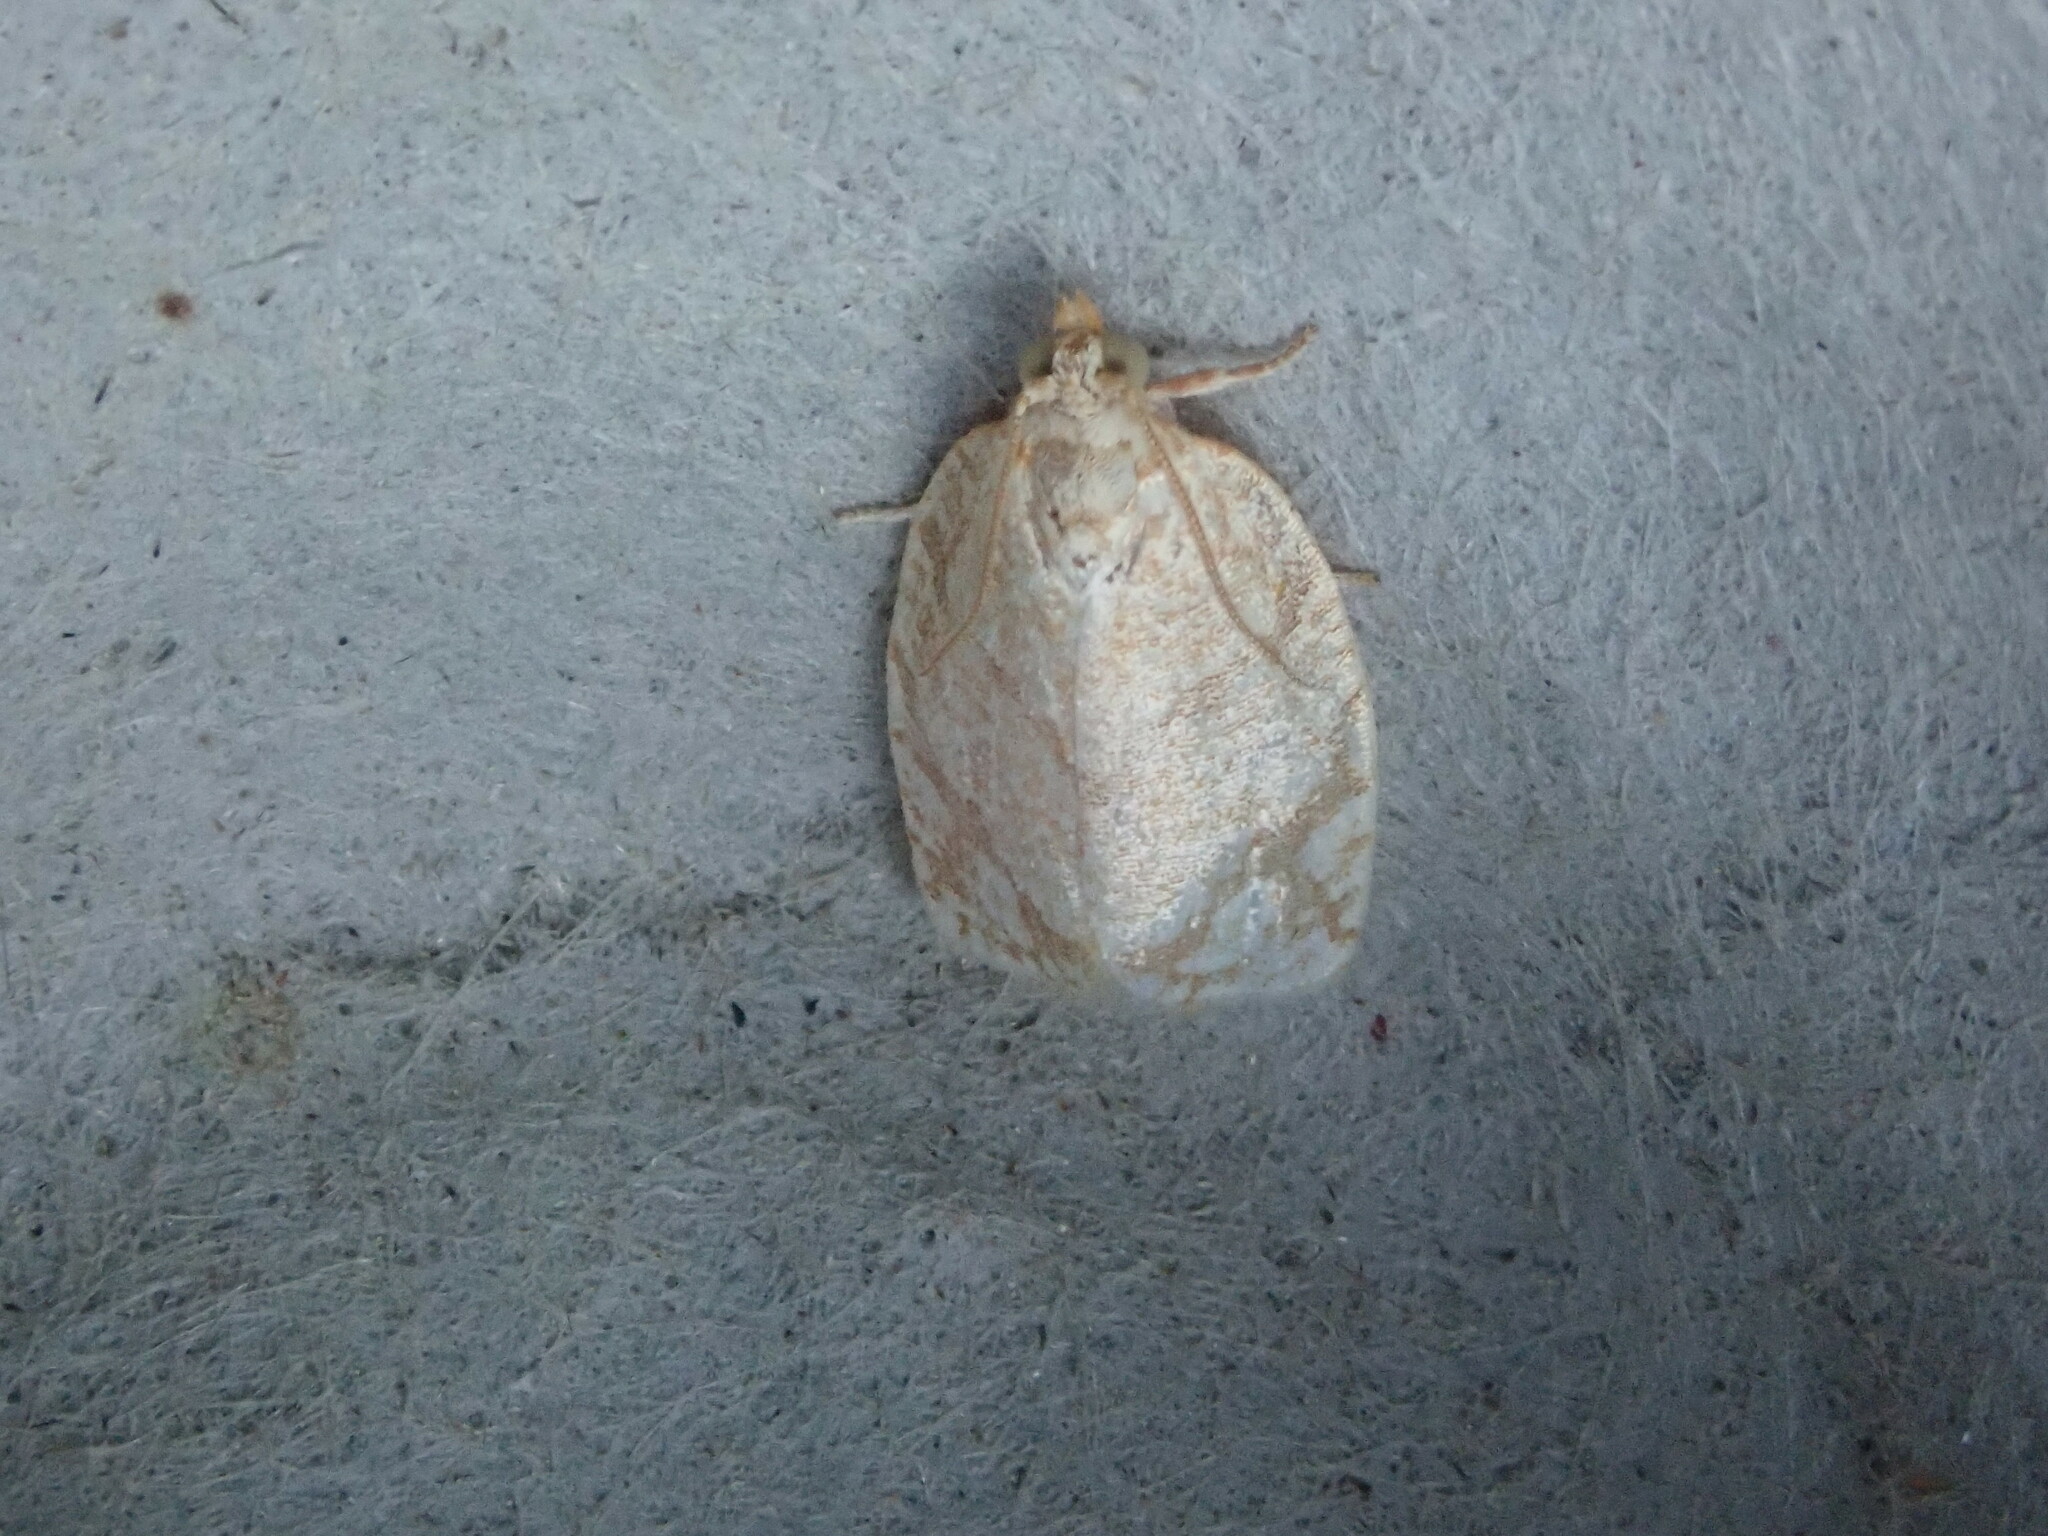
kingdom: Animalia
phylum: Arthropoda
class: Insecta
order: Lepidoptera
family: Tortricidae
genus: Argyrotaenia
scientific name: Argyrotaenia quercifoliana
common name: Yellow-winged oak leafroller moth
